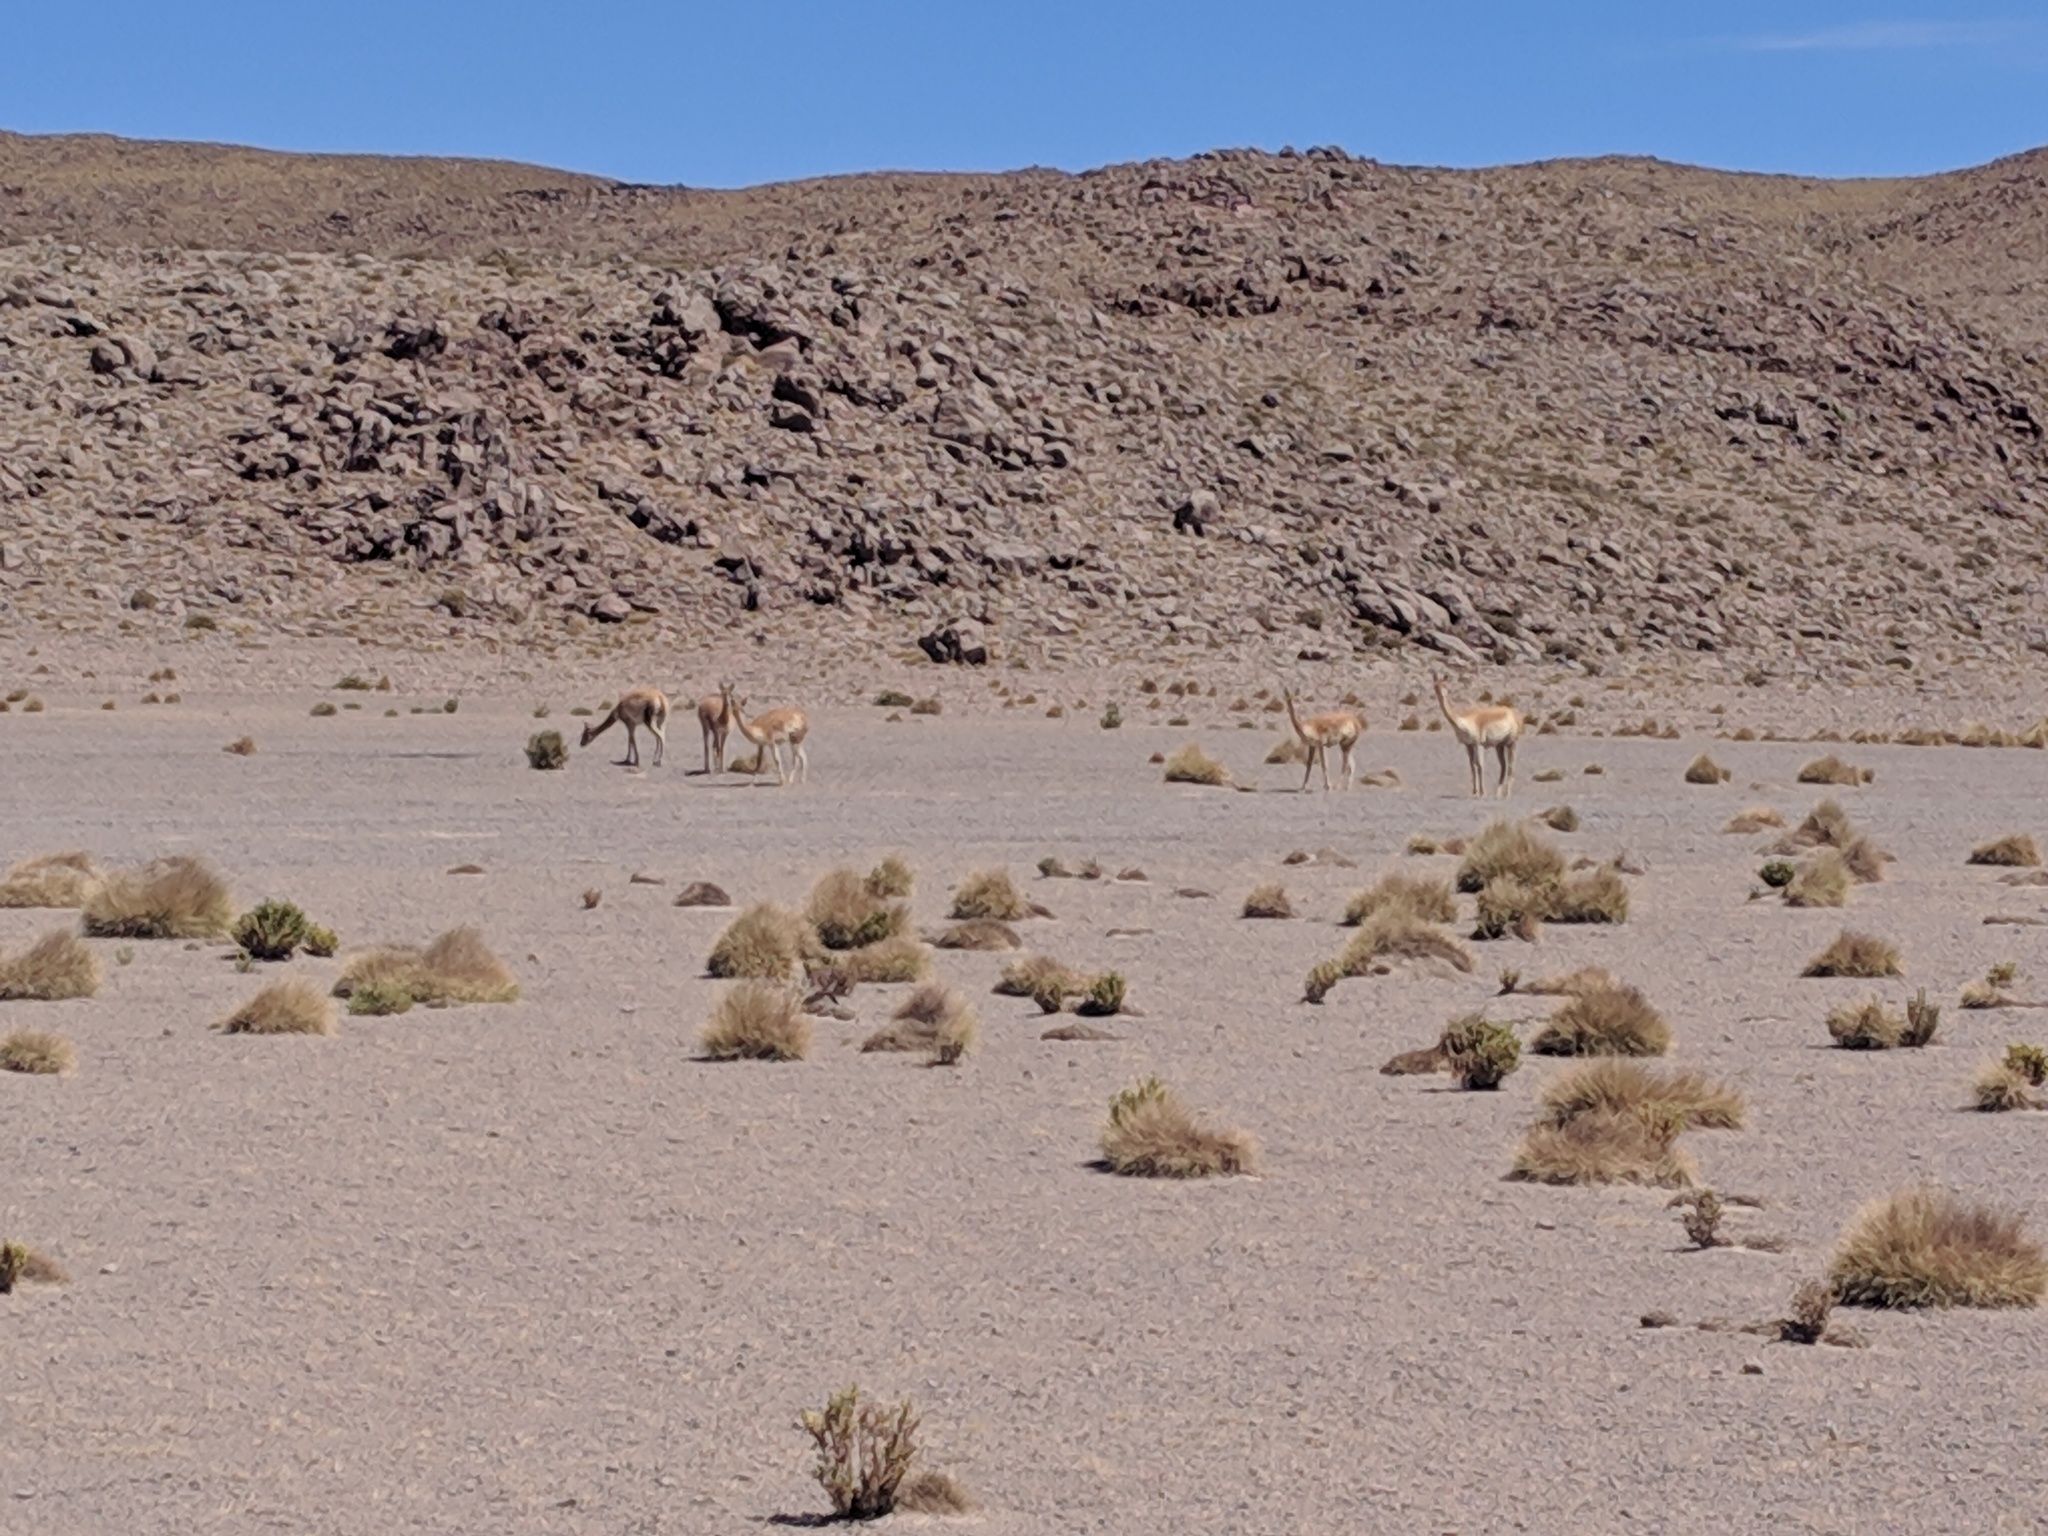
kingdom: Animalia
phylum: Chordata
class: Mammalia
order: Artiodactyla
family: Camelidae
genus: Vicugna
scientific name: Vicugna vicugna
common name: Vicugna
